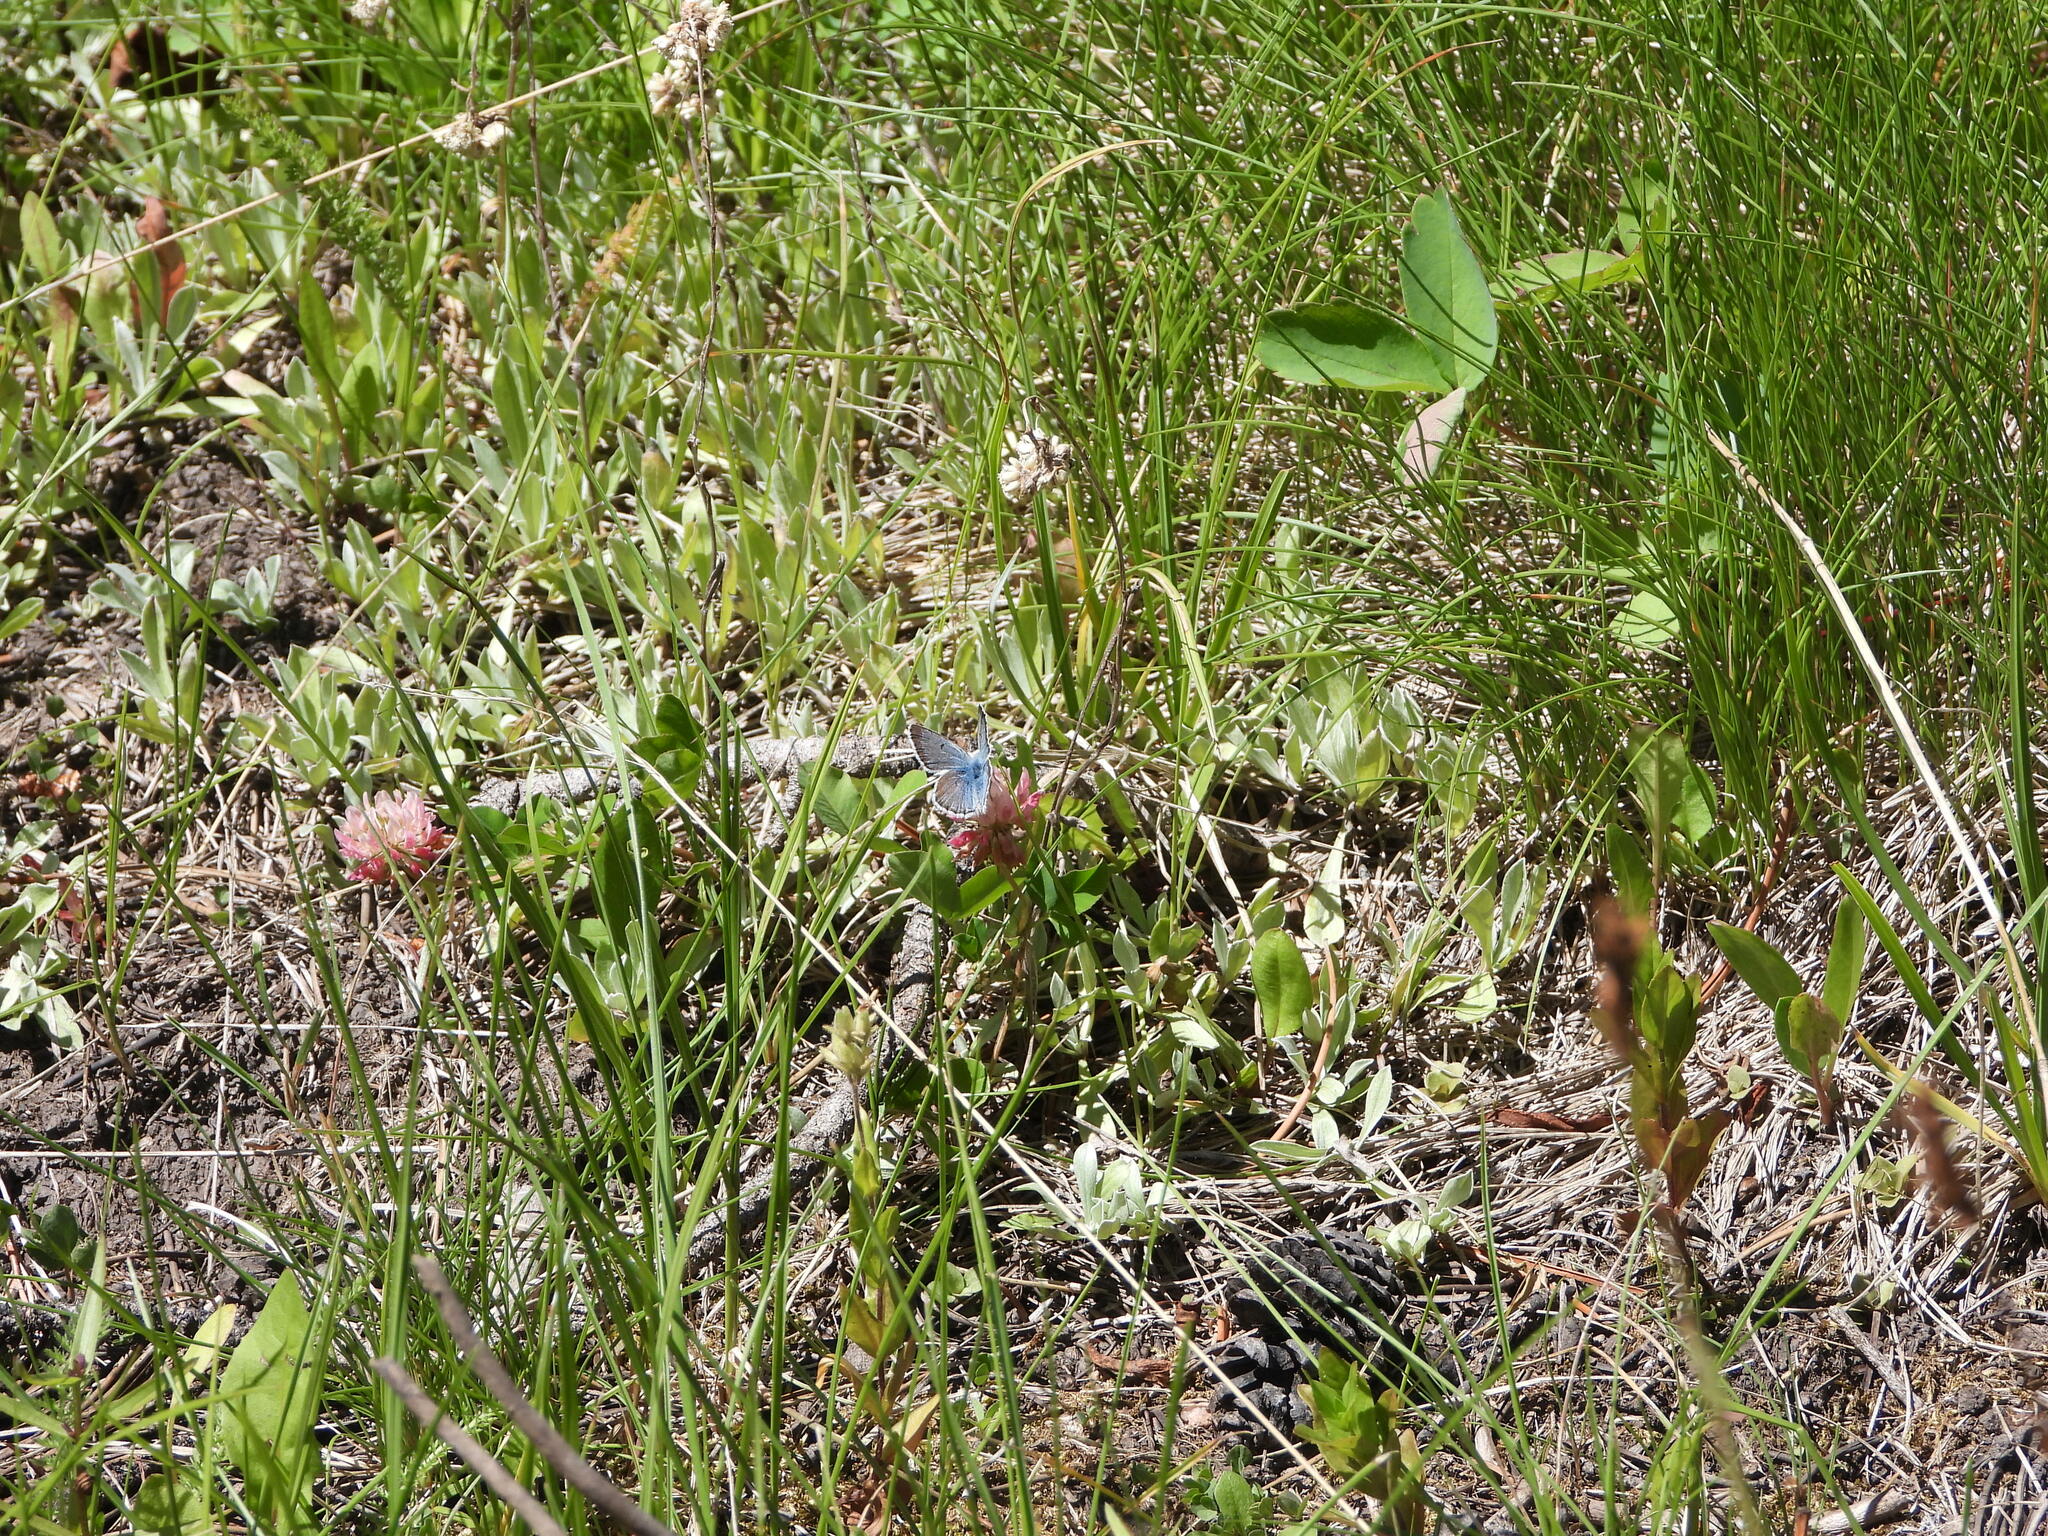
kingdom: Animalia
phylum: Arthropoda
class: Insecta
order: Lepidoptera
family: Lycaenidae
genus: Icaricia
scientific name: Icaricia saepiolus
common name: Greenish blue
